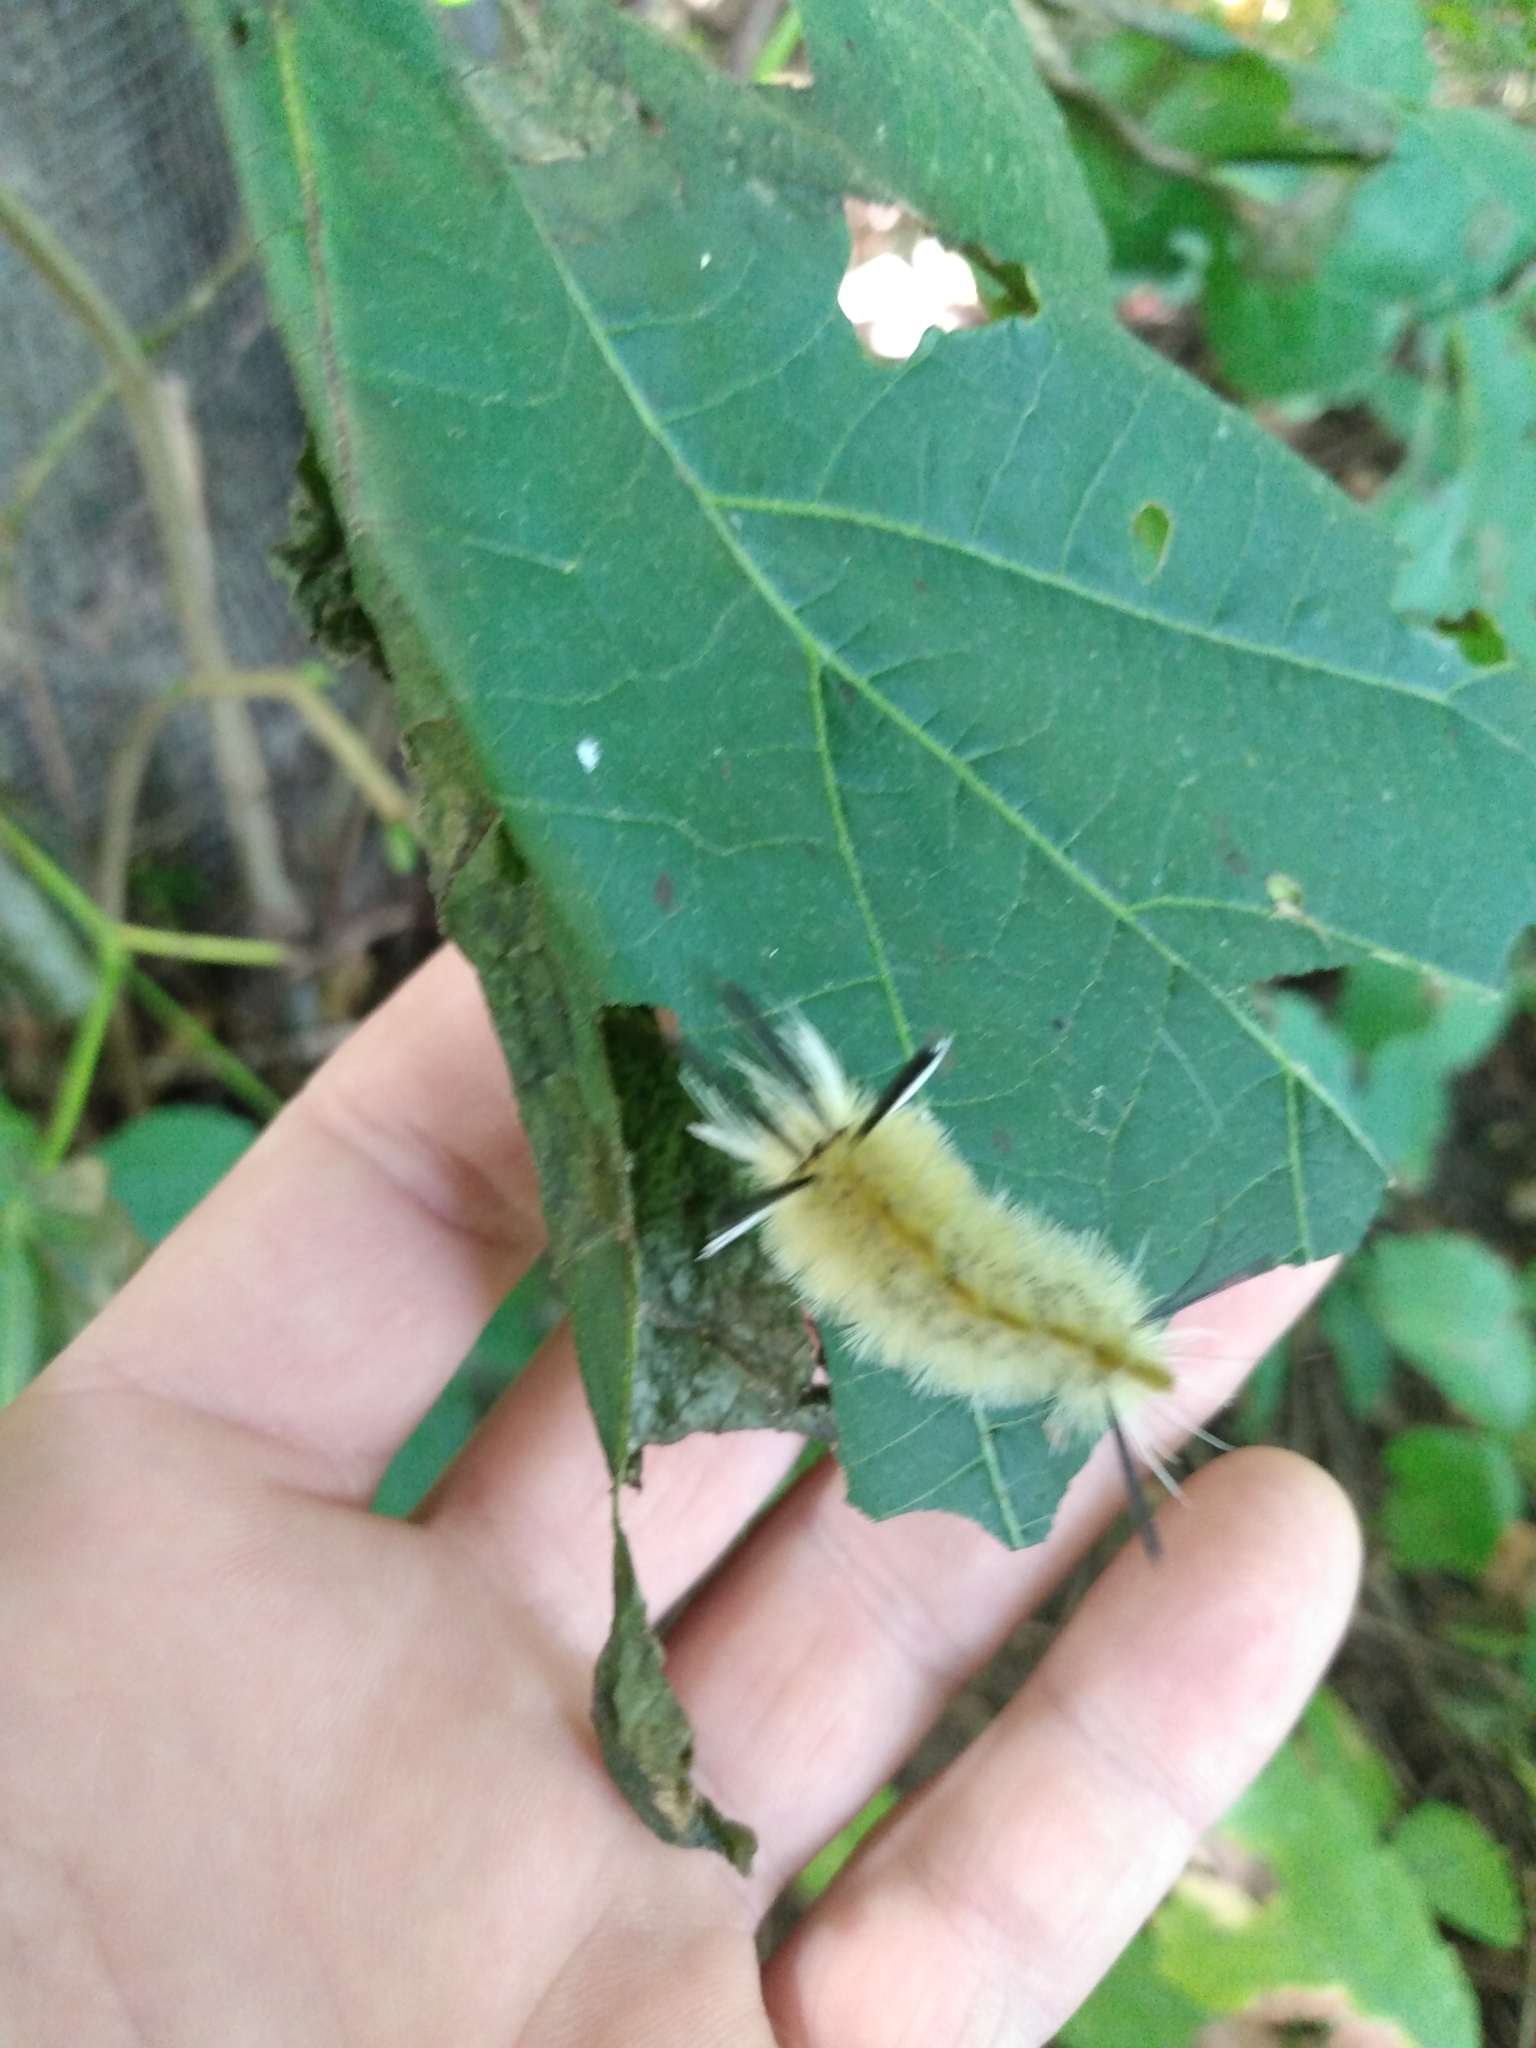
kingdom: Animalia
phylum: Arthropoda
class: Insecta
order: Lepidoptera
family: Erebidae
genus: Halysidota
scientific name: Halysidota tessellaris
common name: Banded tussock moth
